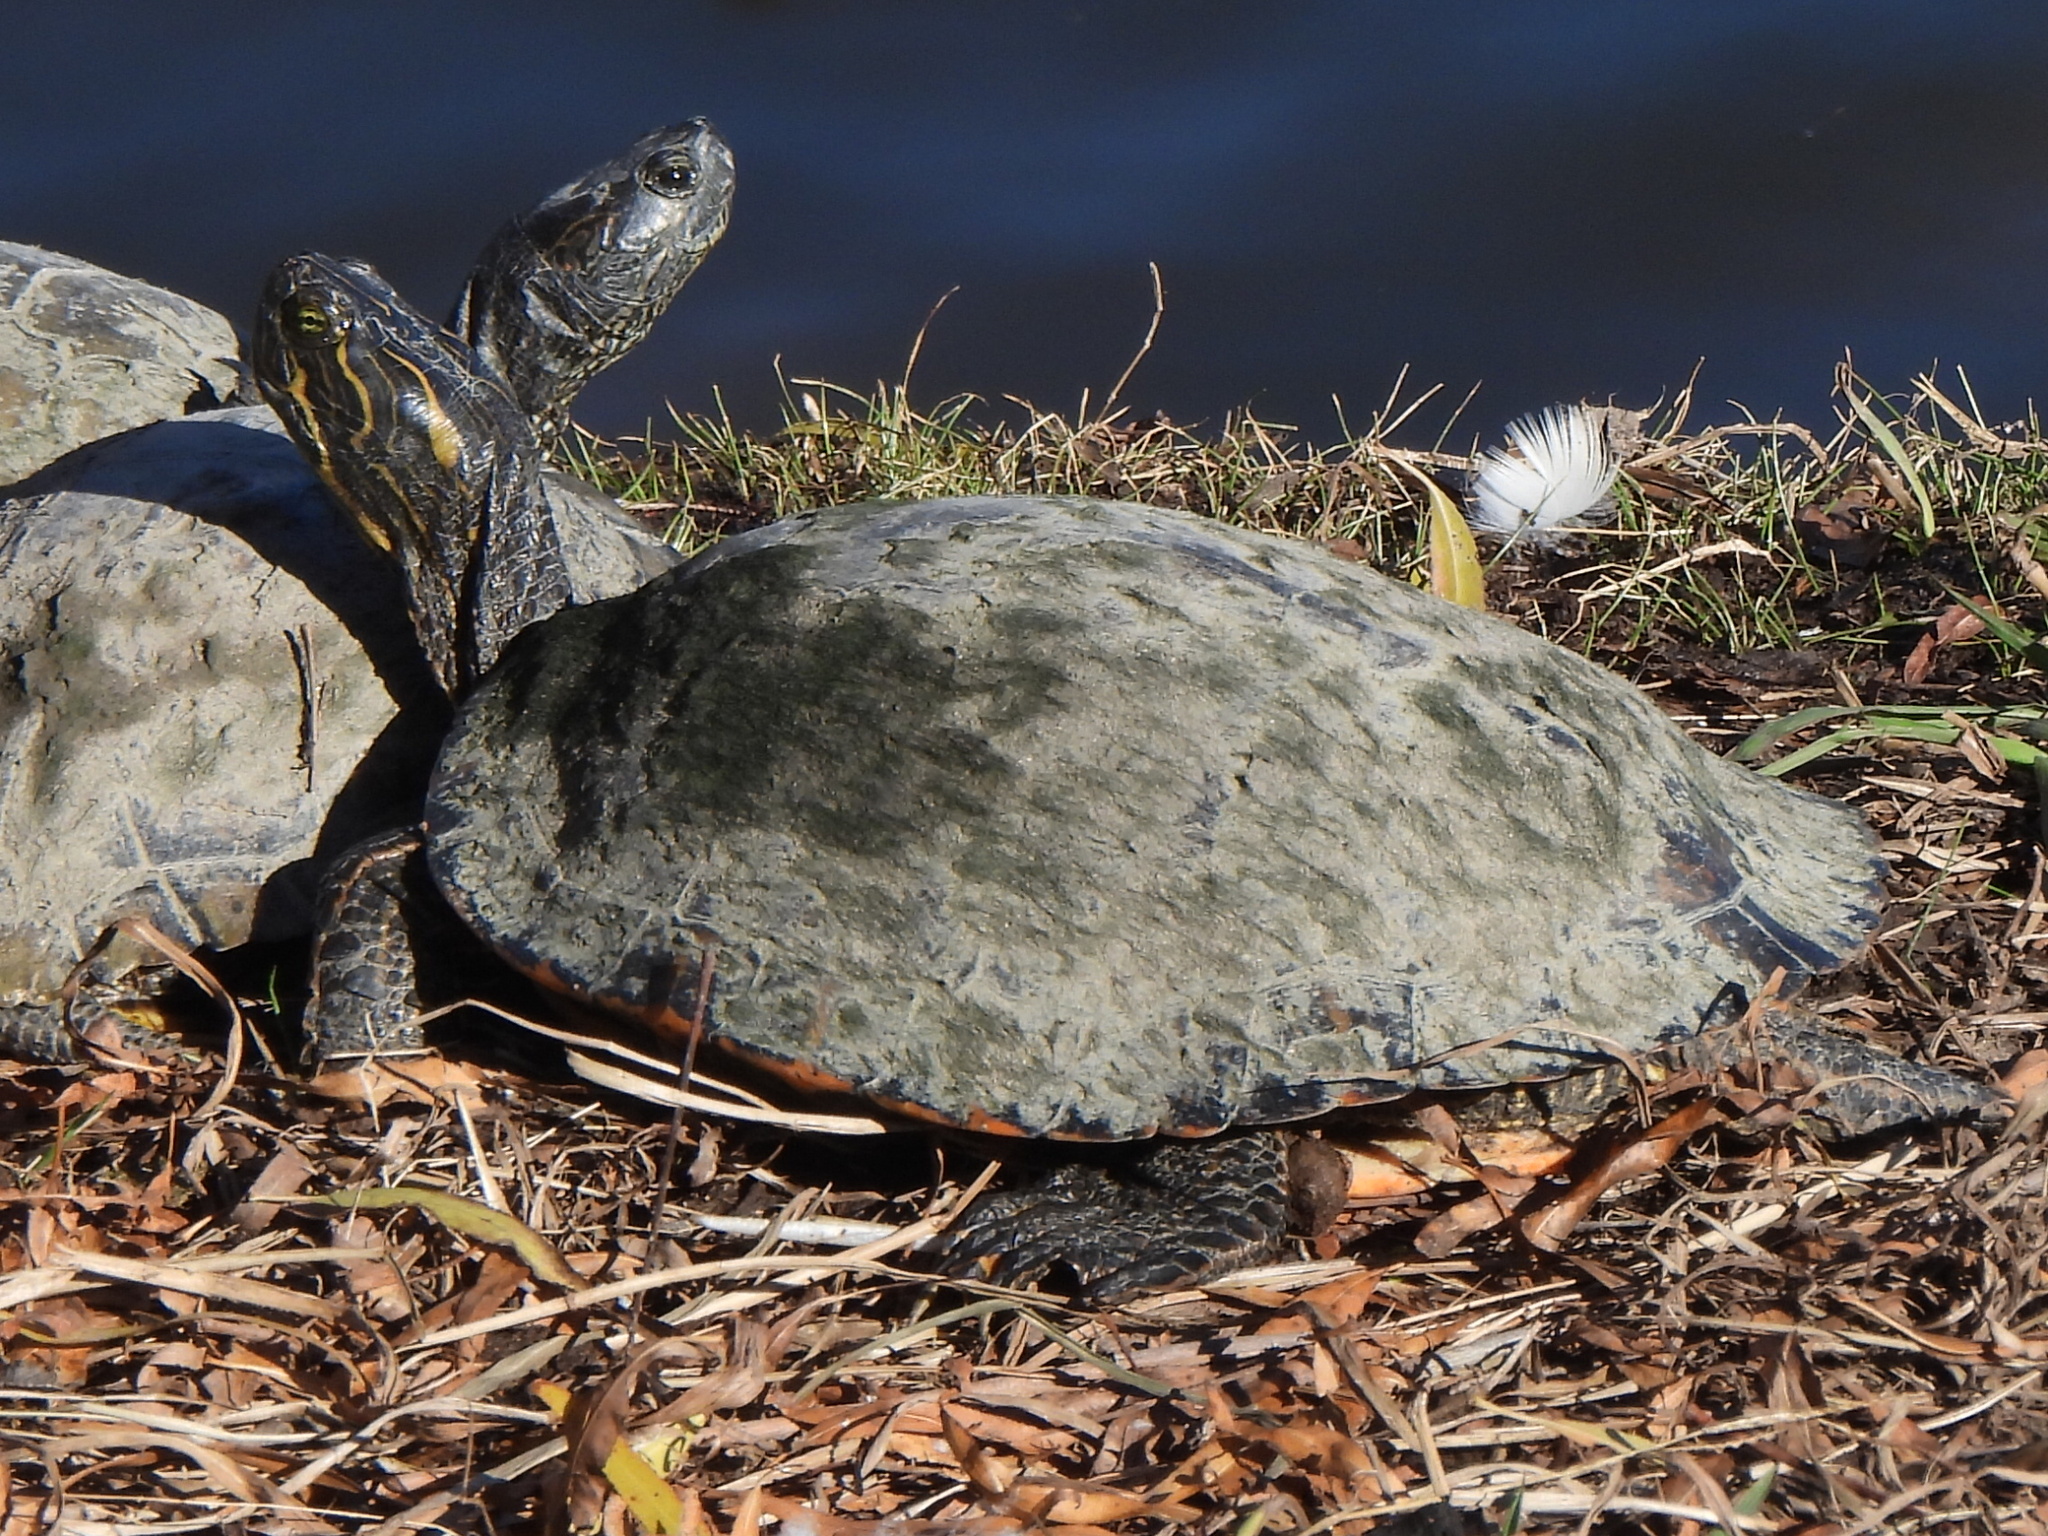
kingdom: Animalia
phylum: Chordata
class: Testudines
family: Emydidae
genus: Pseudemys
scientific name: Pseudemys concinna
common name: Eastern river cooter
